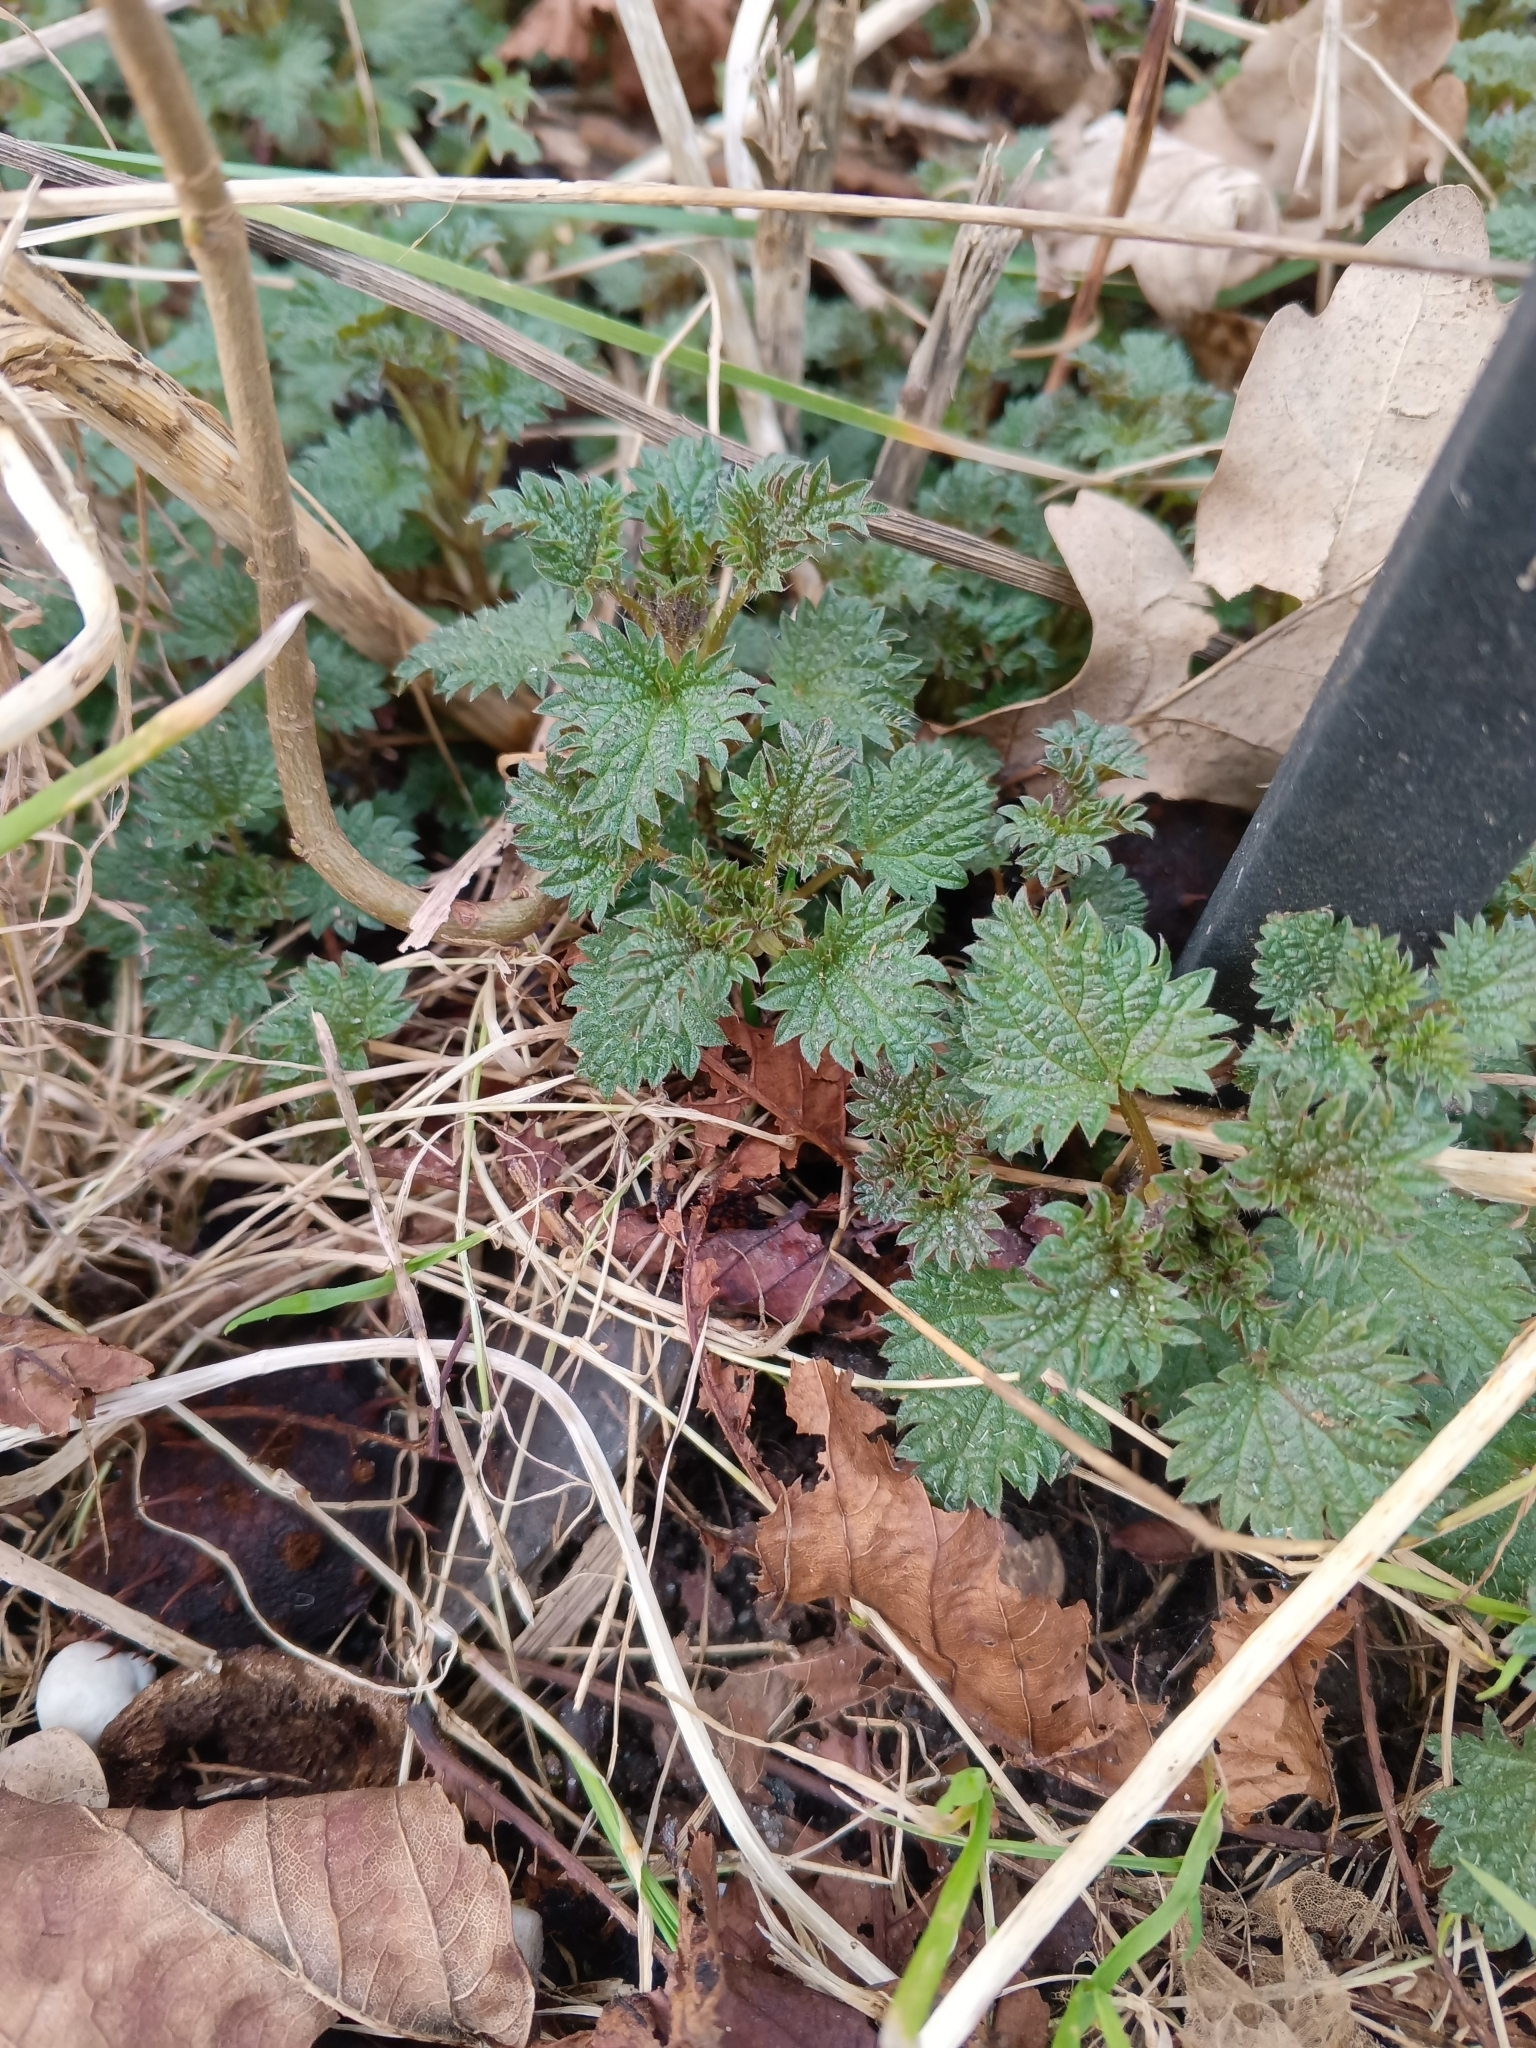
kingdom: Plantae
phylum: Tracheophyta
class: Magnoliopsida
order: Rosales
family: Urticaceae
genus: Urtica
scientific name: Urtica dioica
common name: Common nettle
